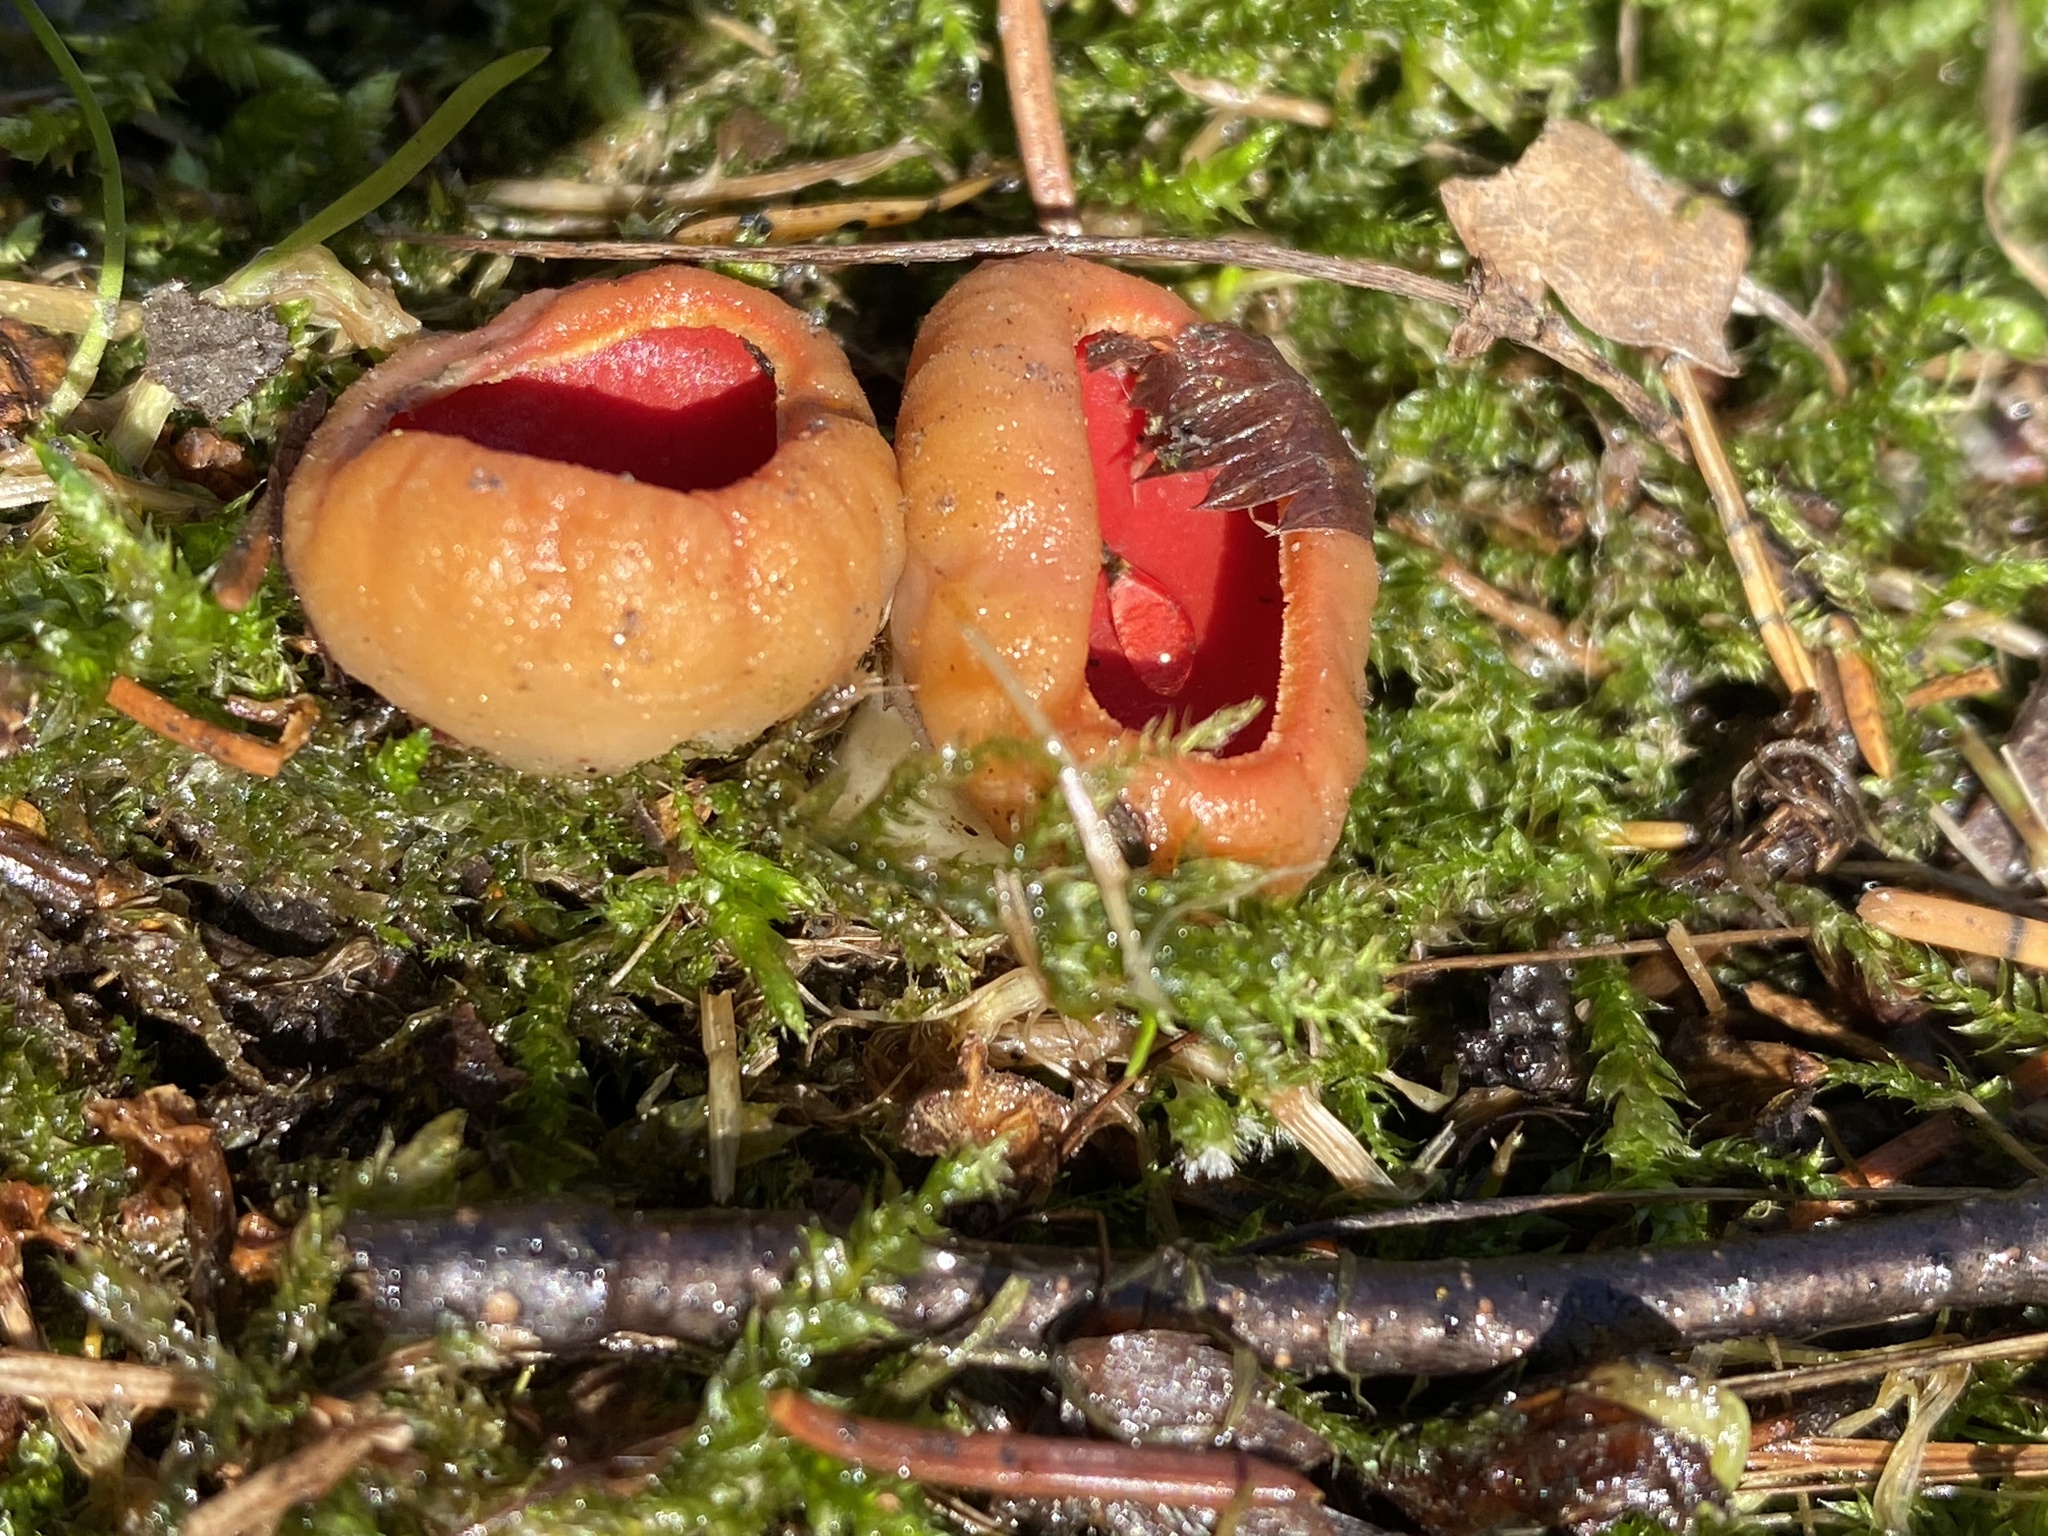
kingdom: Fungi
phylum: Ascomycota
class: Pezizomycetes
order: Pezizales
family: Sarcoscyphaceae
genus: Sarcoscypha
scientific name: Sarcoscypha
